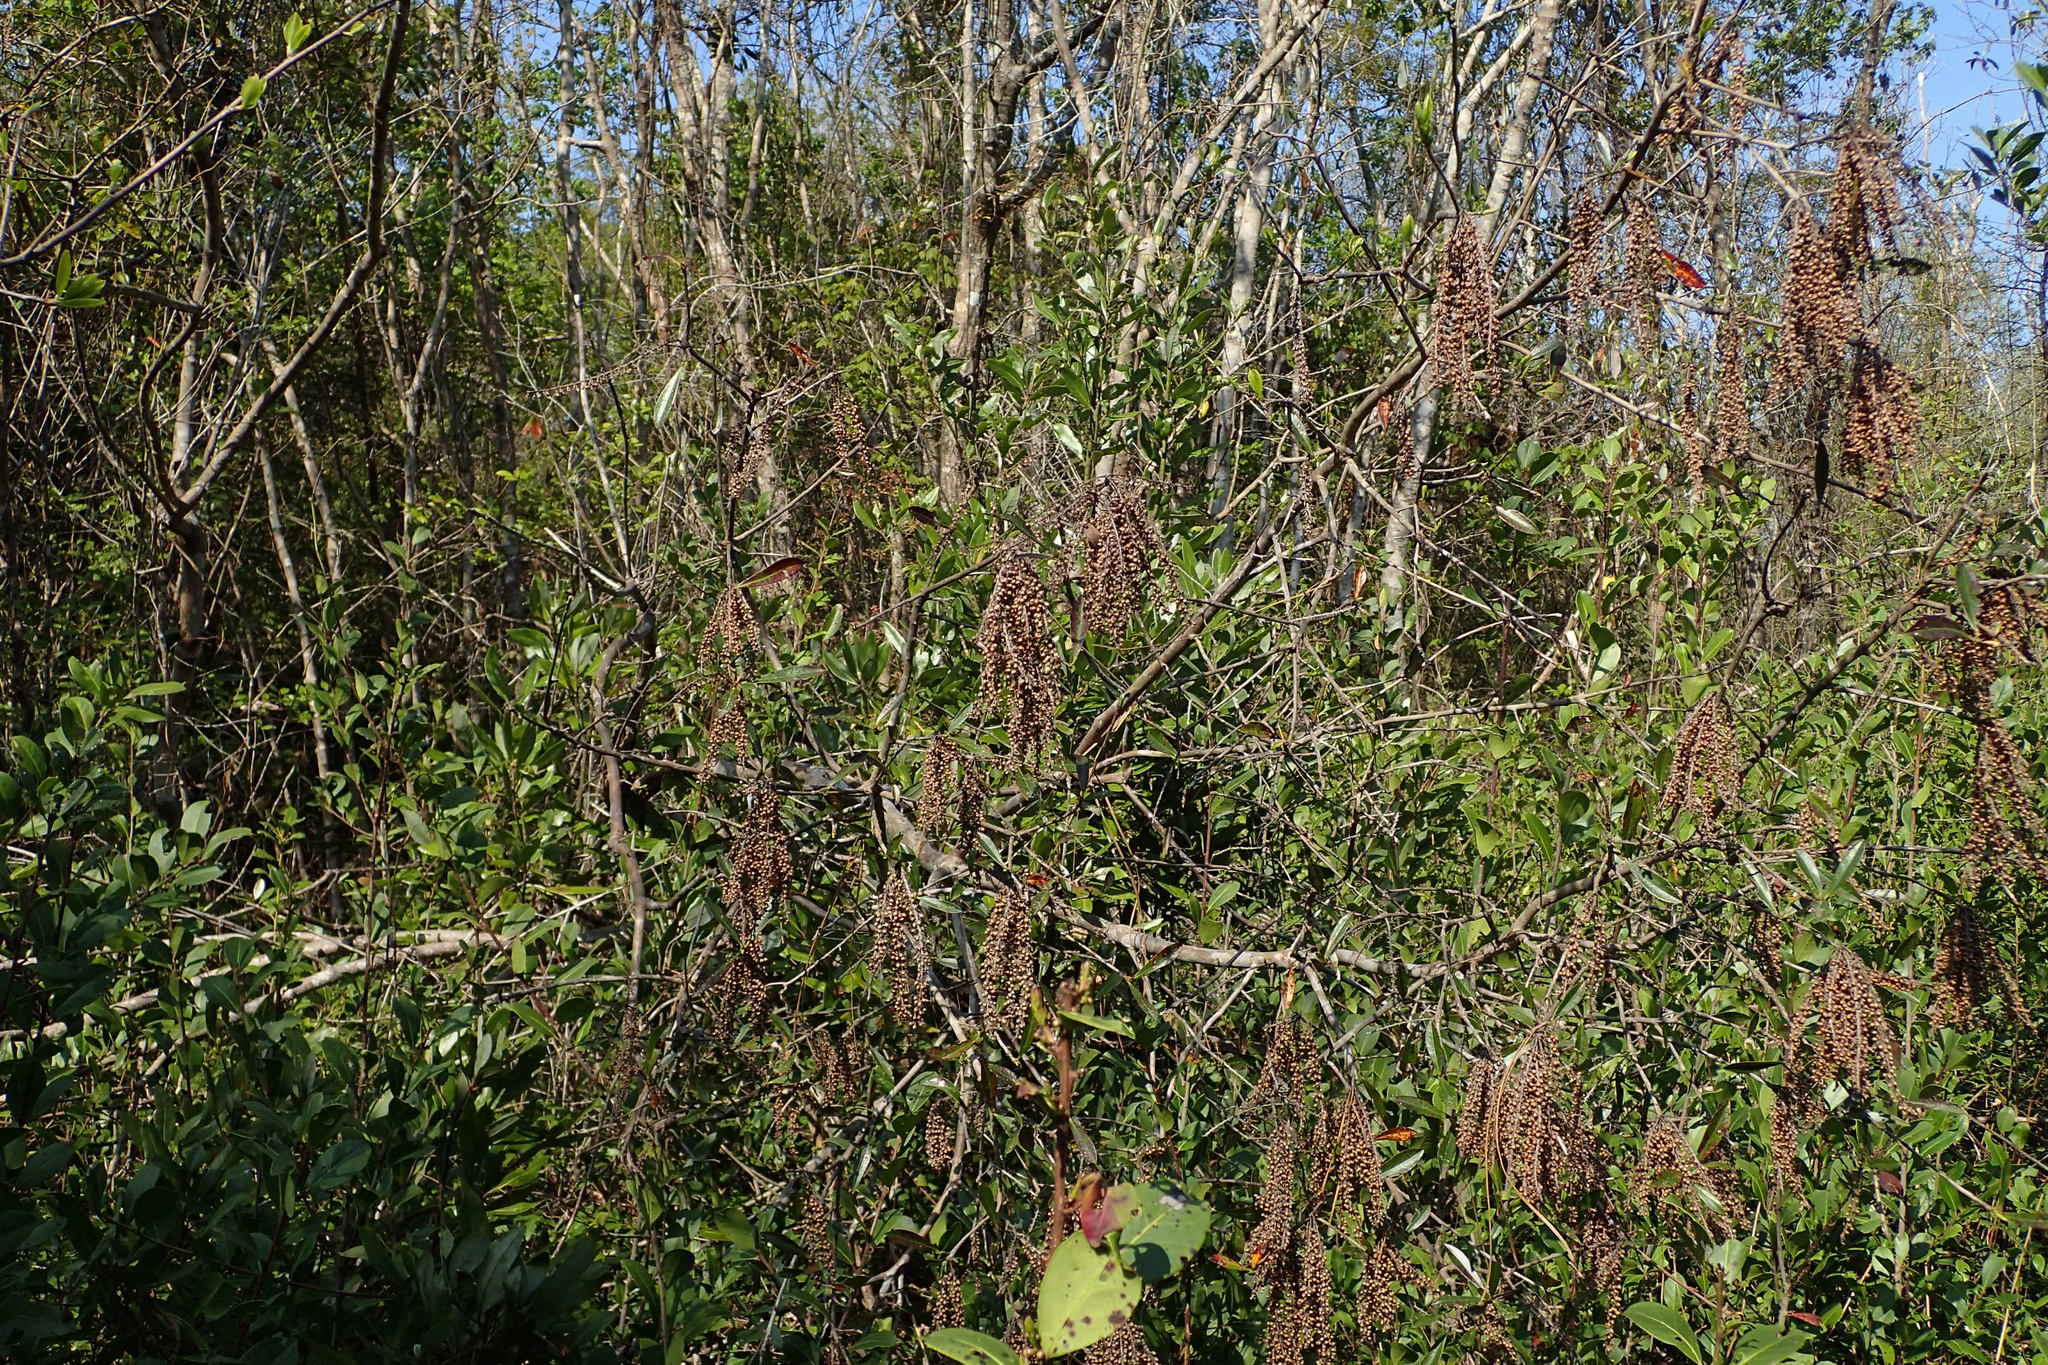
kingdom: Plantae
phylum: Tracheophyta
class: Magnoliopsida
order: Ericales
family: Cyrillaceae
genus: Cyrilla
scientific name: Cyrilla racemiflora
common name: Black titi
